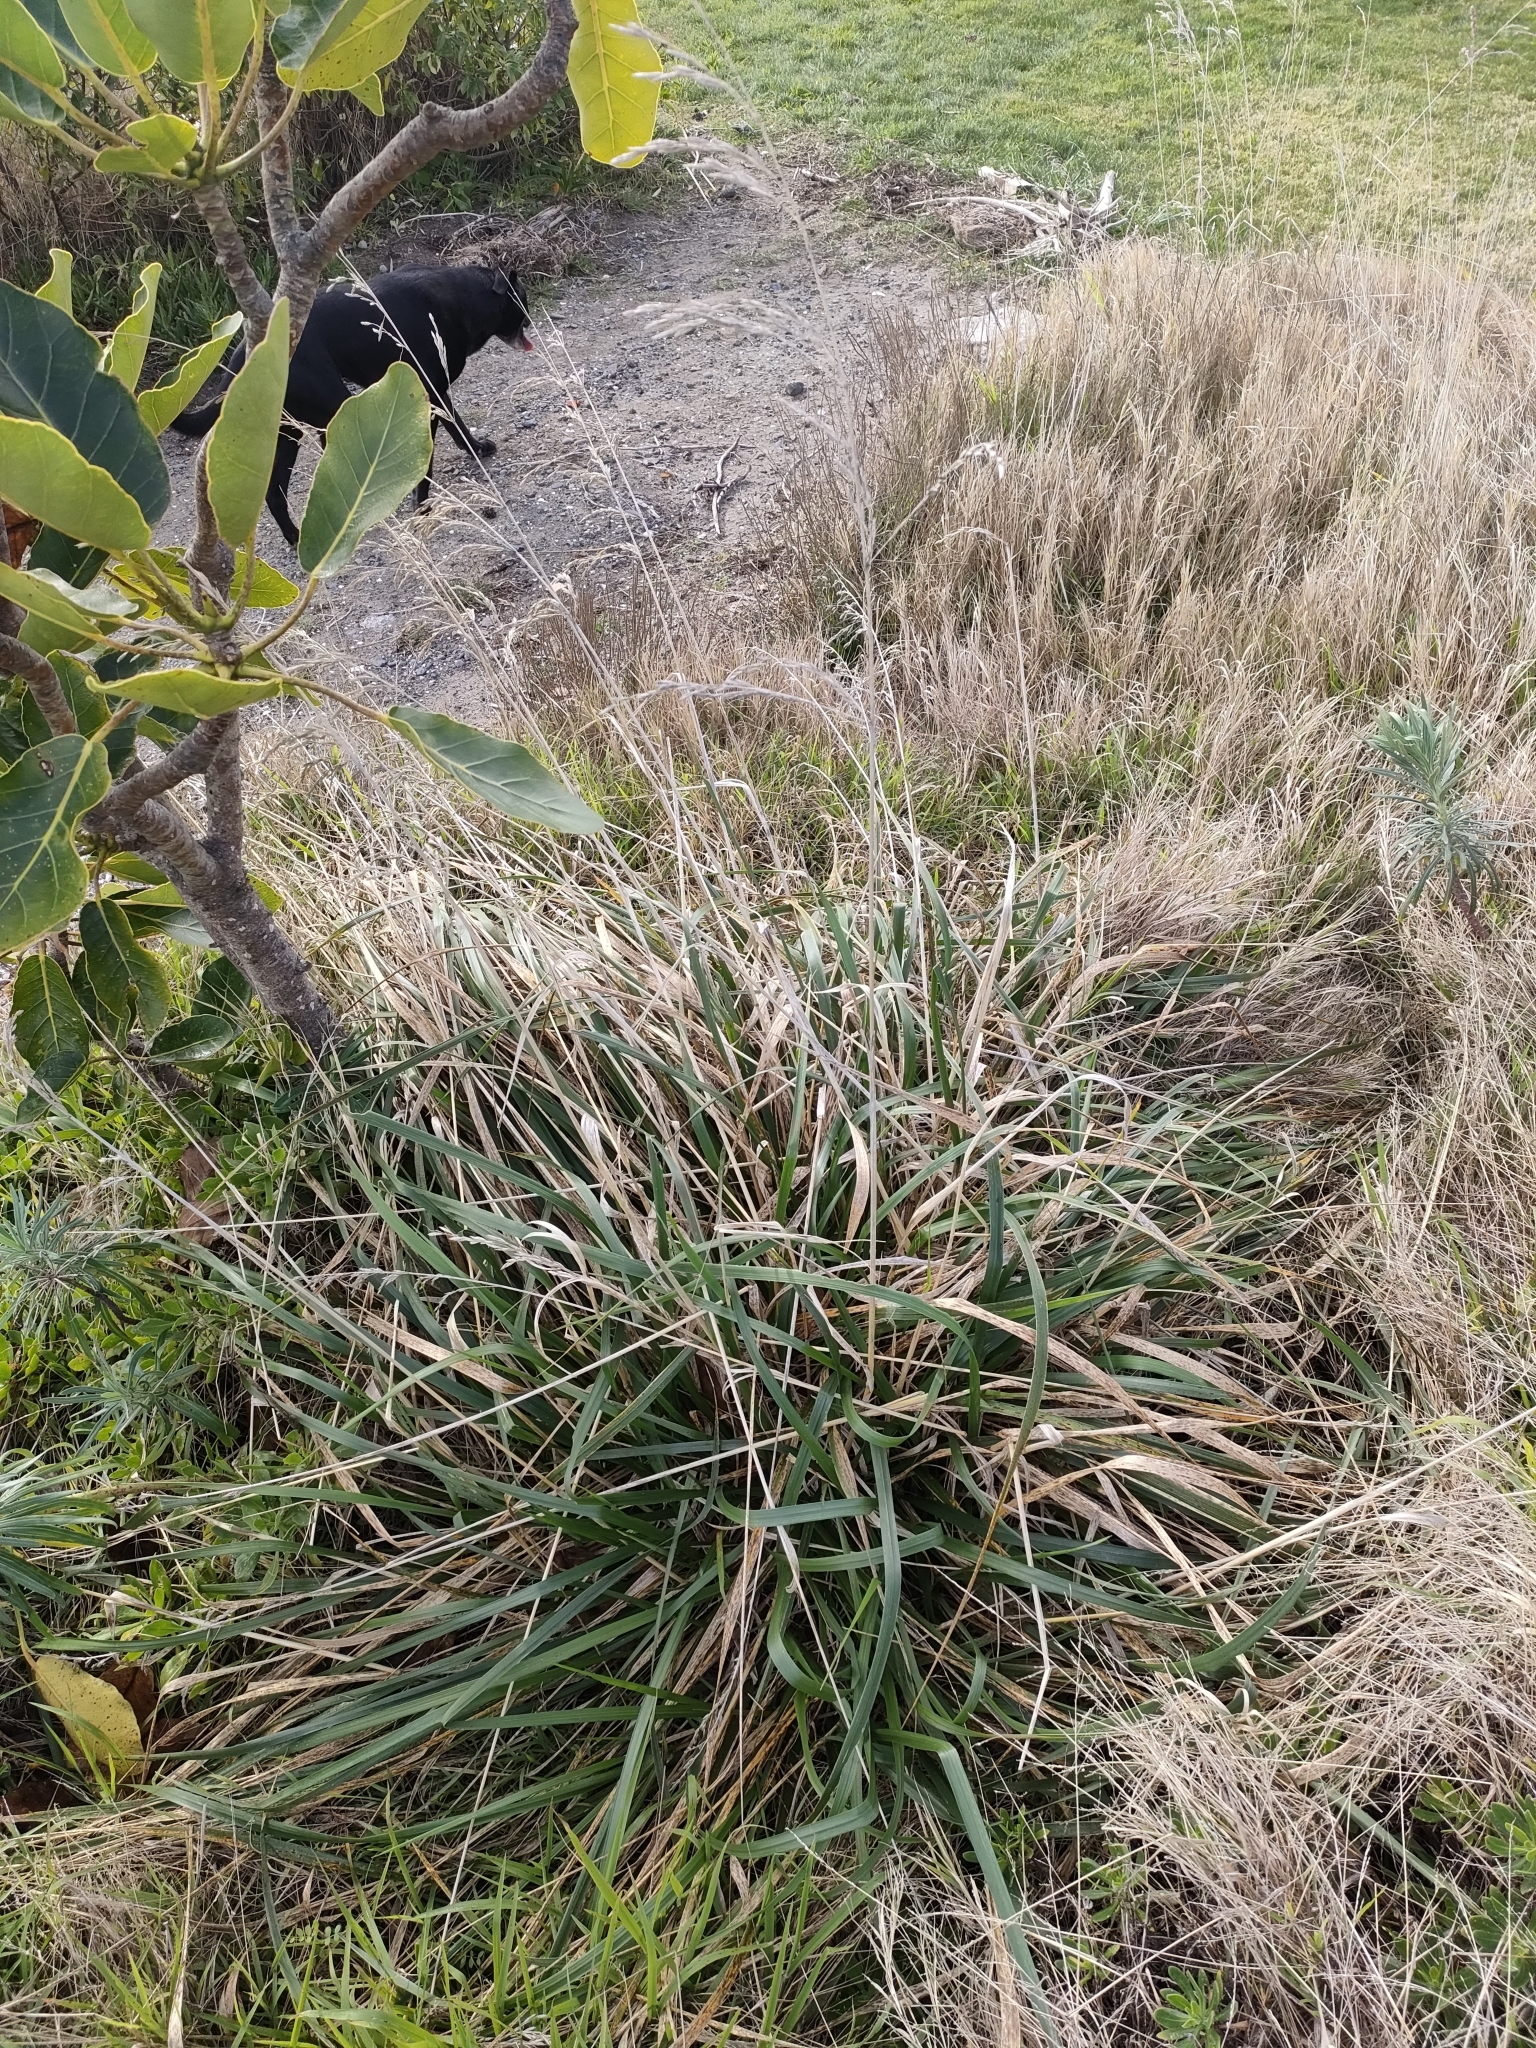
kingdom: Plantae
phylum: Tracheophyta
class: Liliopsida
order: Poales
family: Poaceae
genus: Lolium
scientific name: Lolium arundinaceum
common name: Reed fescue
